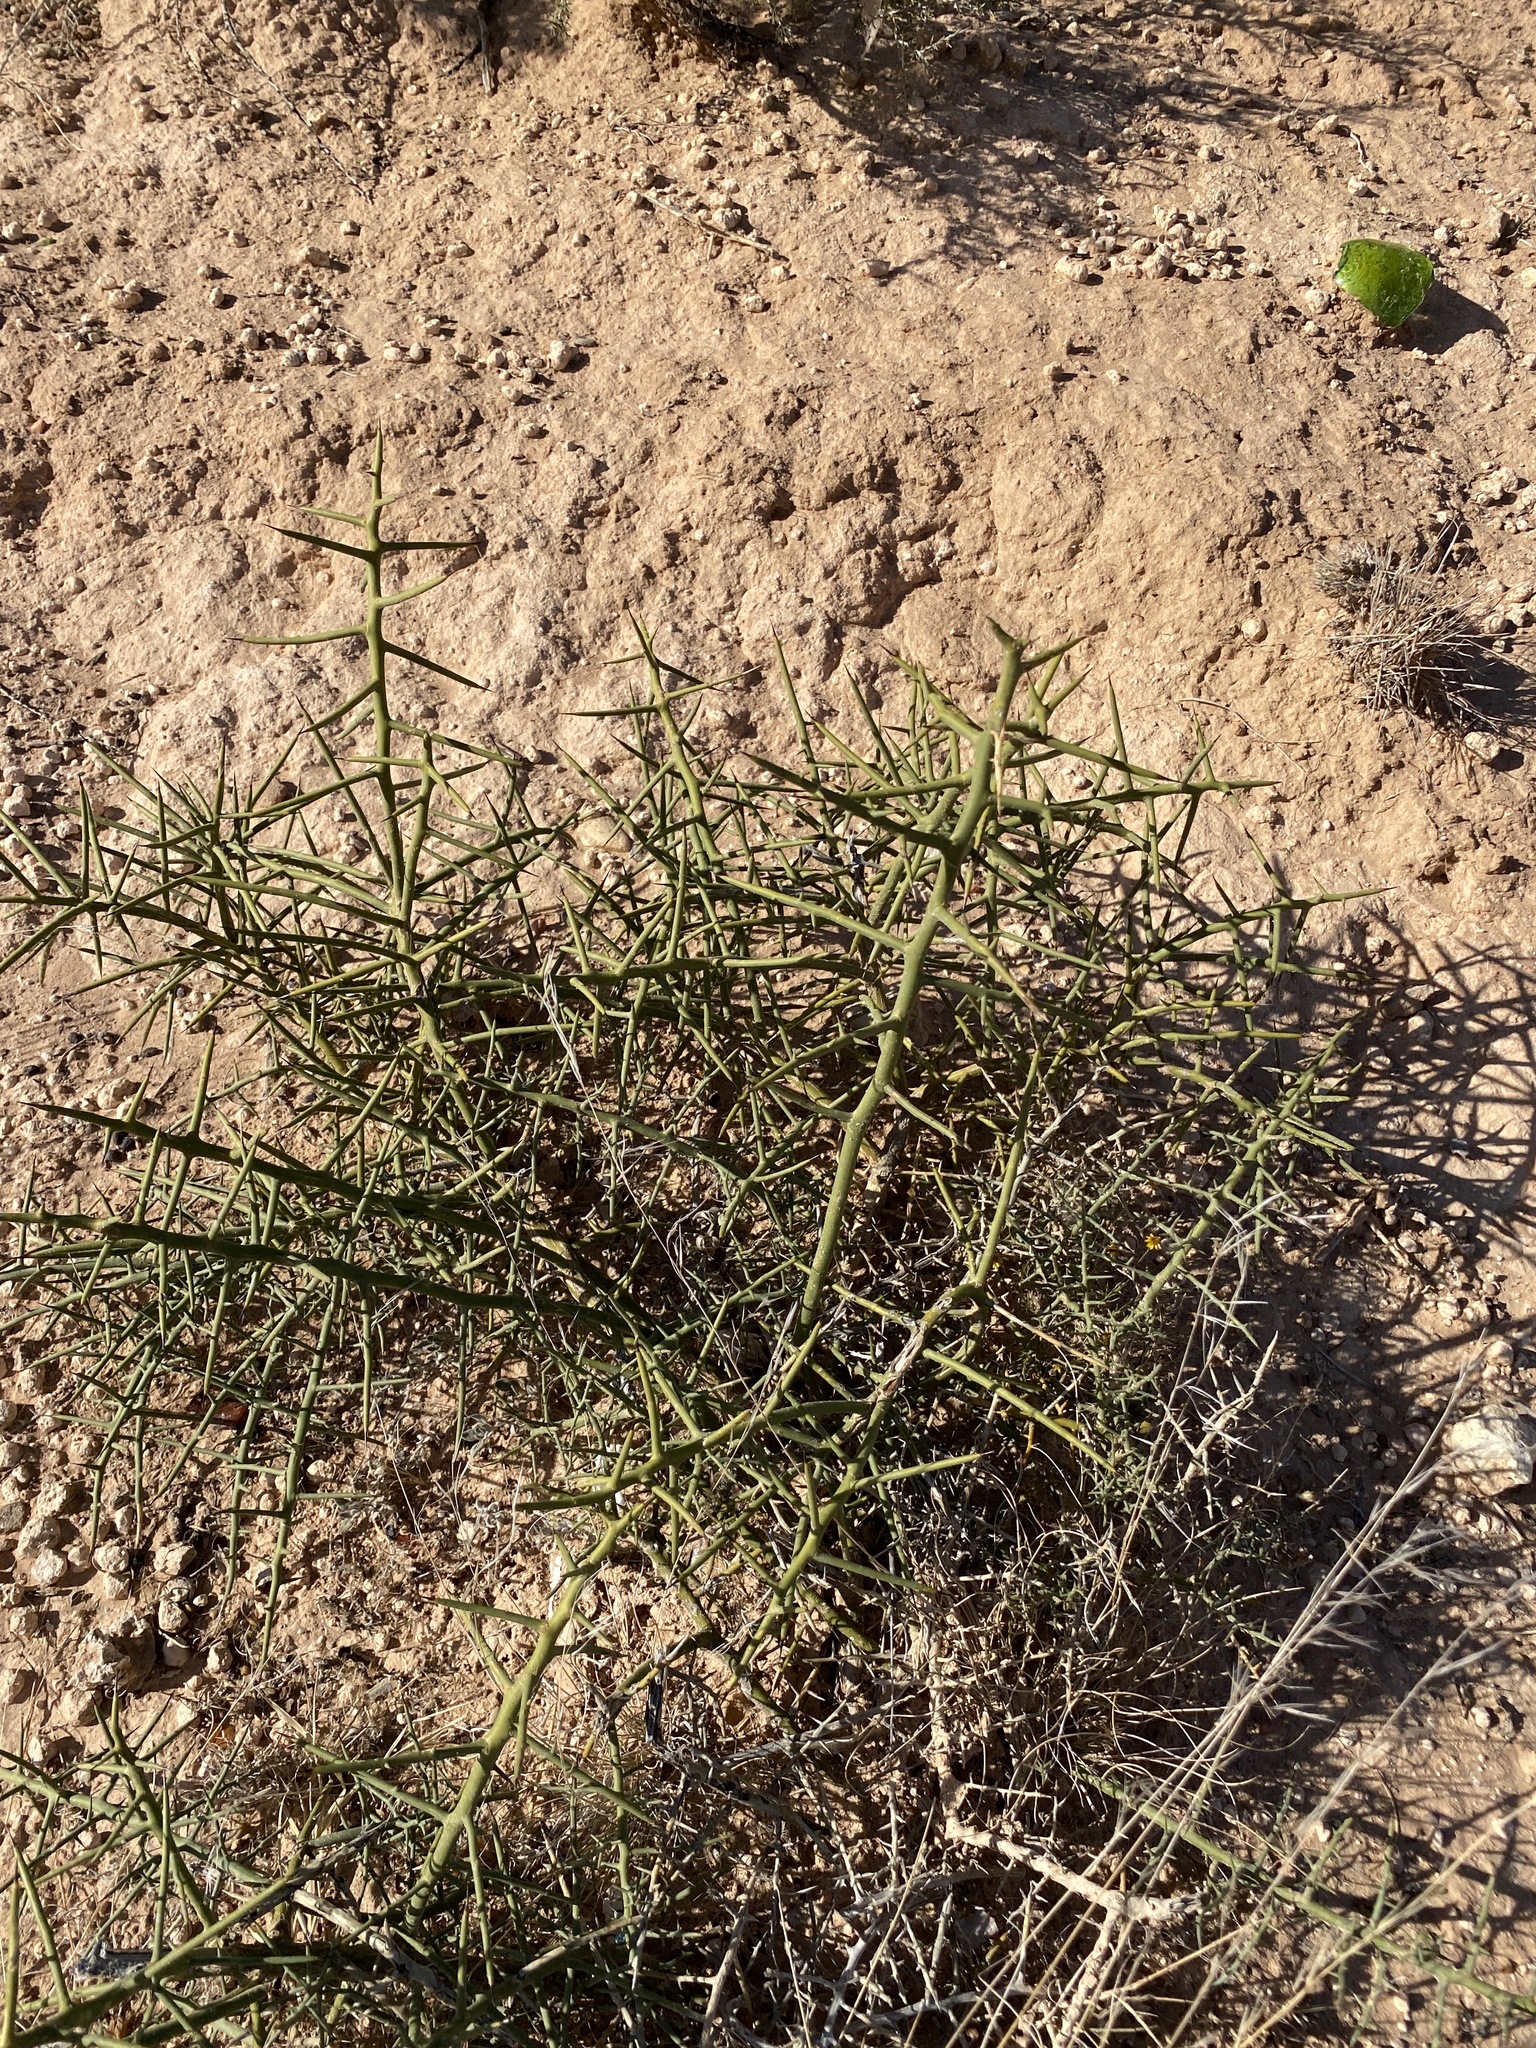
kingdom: Plantae
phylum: Tracheophyta
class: Magnoliopsida
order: Brassicales
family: Koeberliniaceae
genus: Koeberlinia
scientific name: Koeberlinia spinosa
